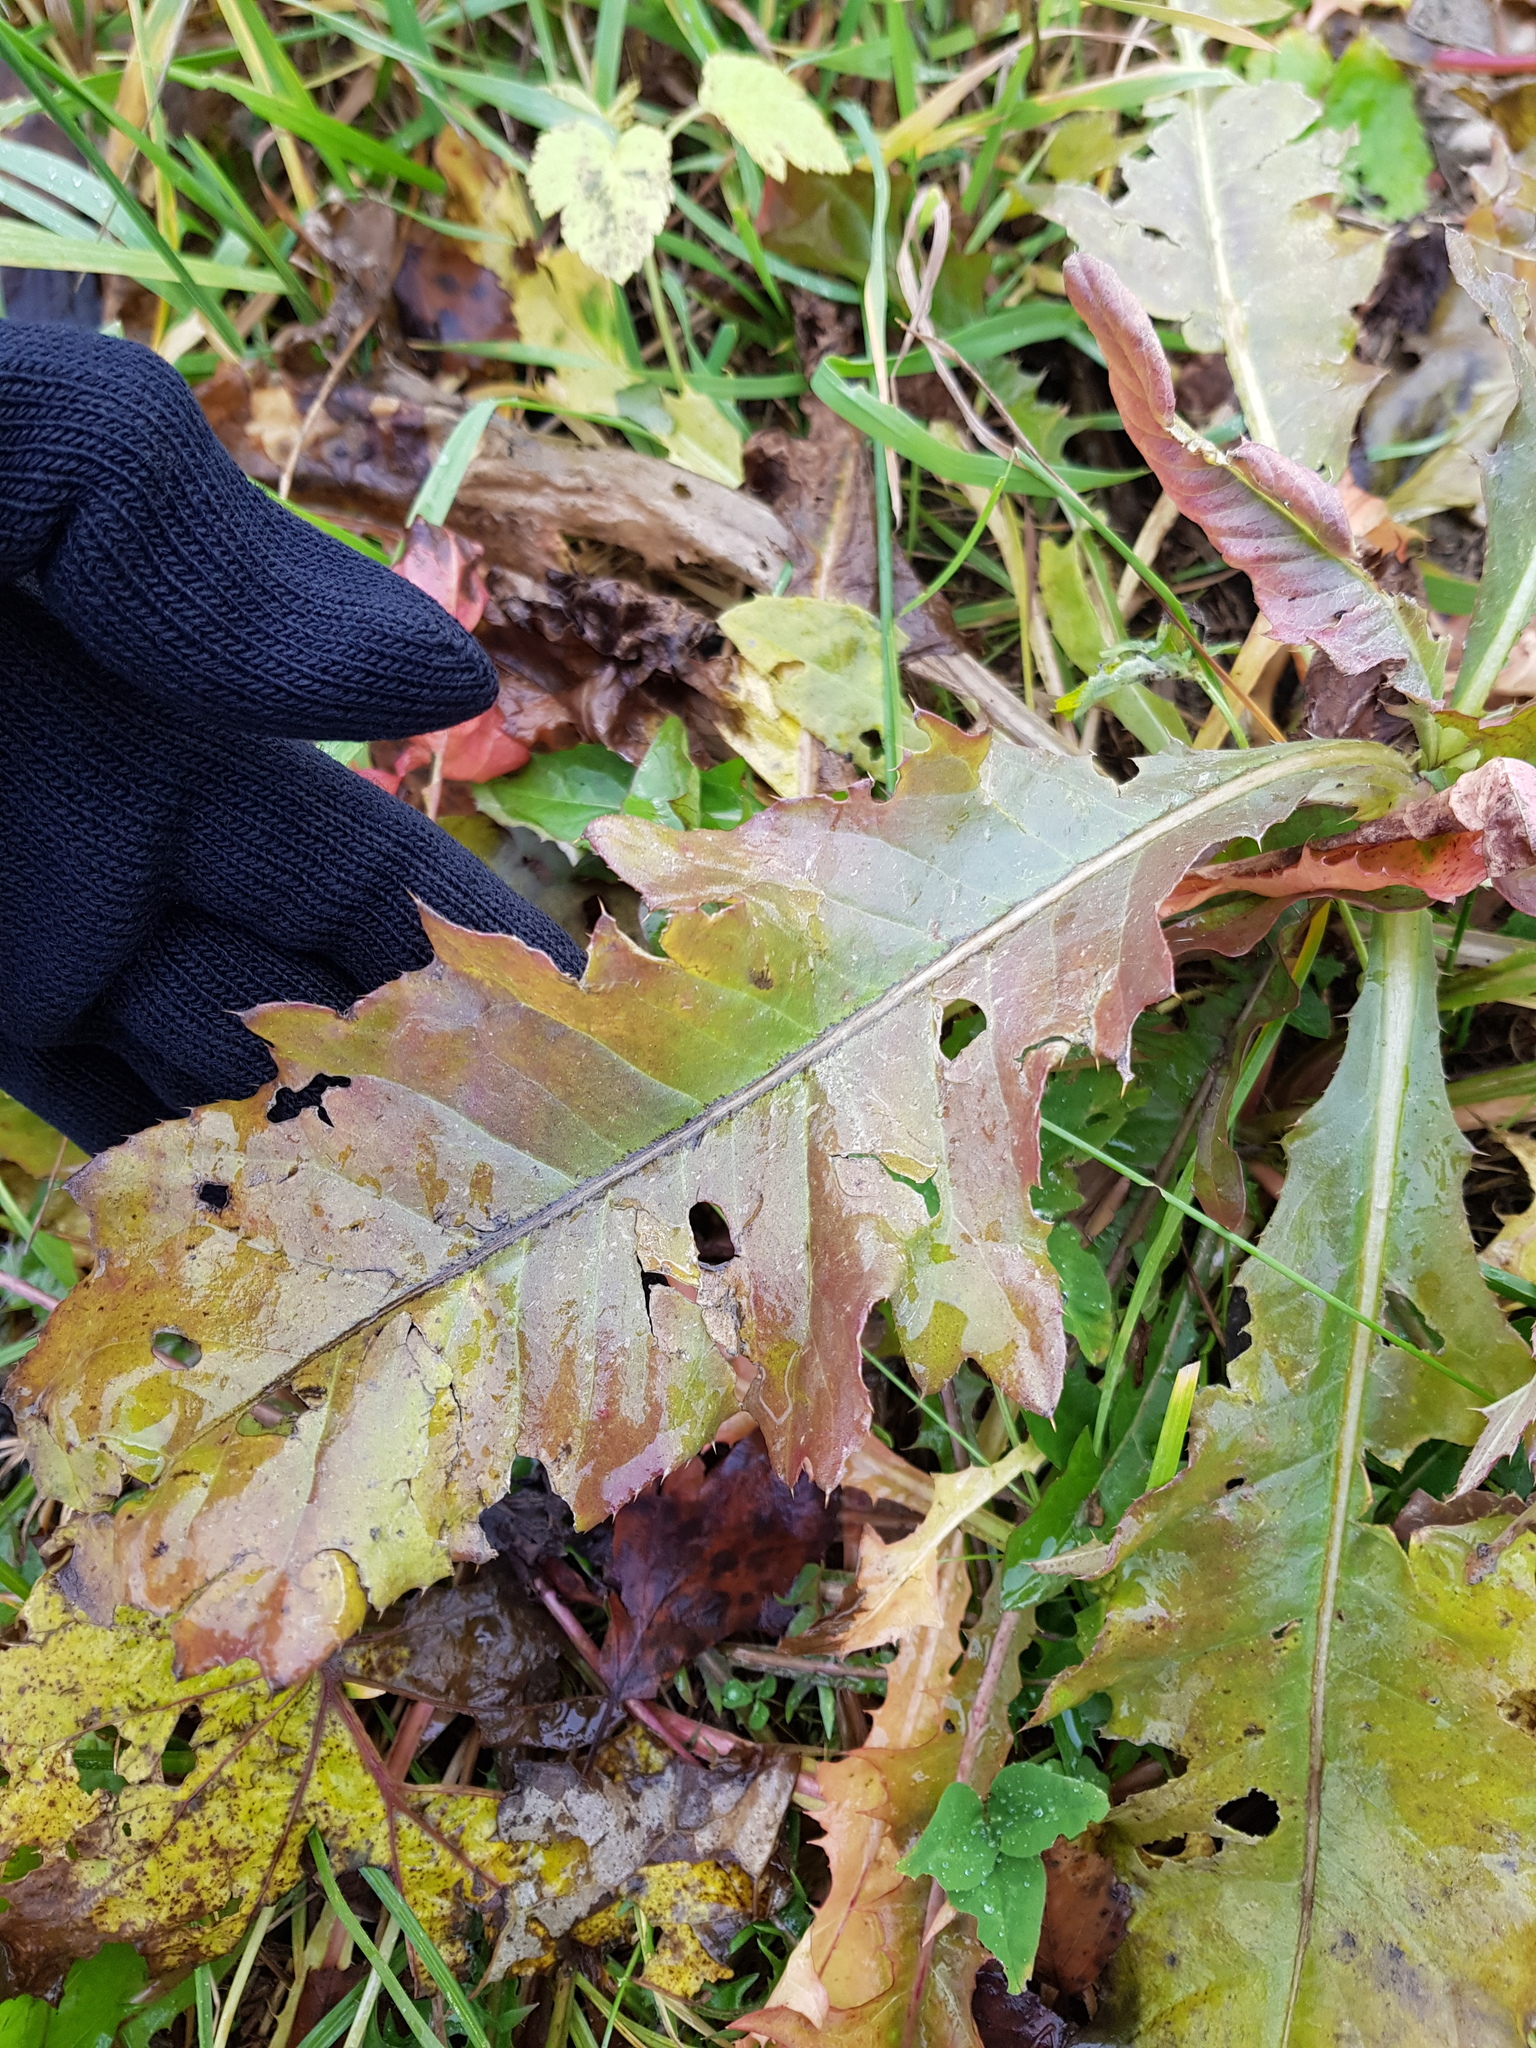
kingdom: Plantae
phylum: Tracheophyta
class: Magnoliopsida
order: Asterales
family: Asteraceae
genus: Cirsium
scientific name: Cirsium arvense
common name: Creeping thistle
